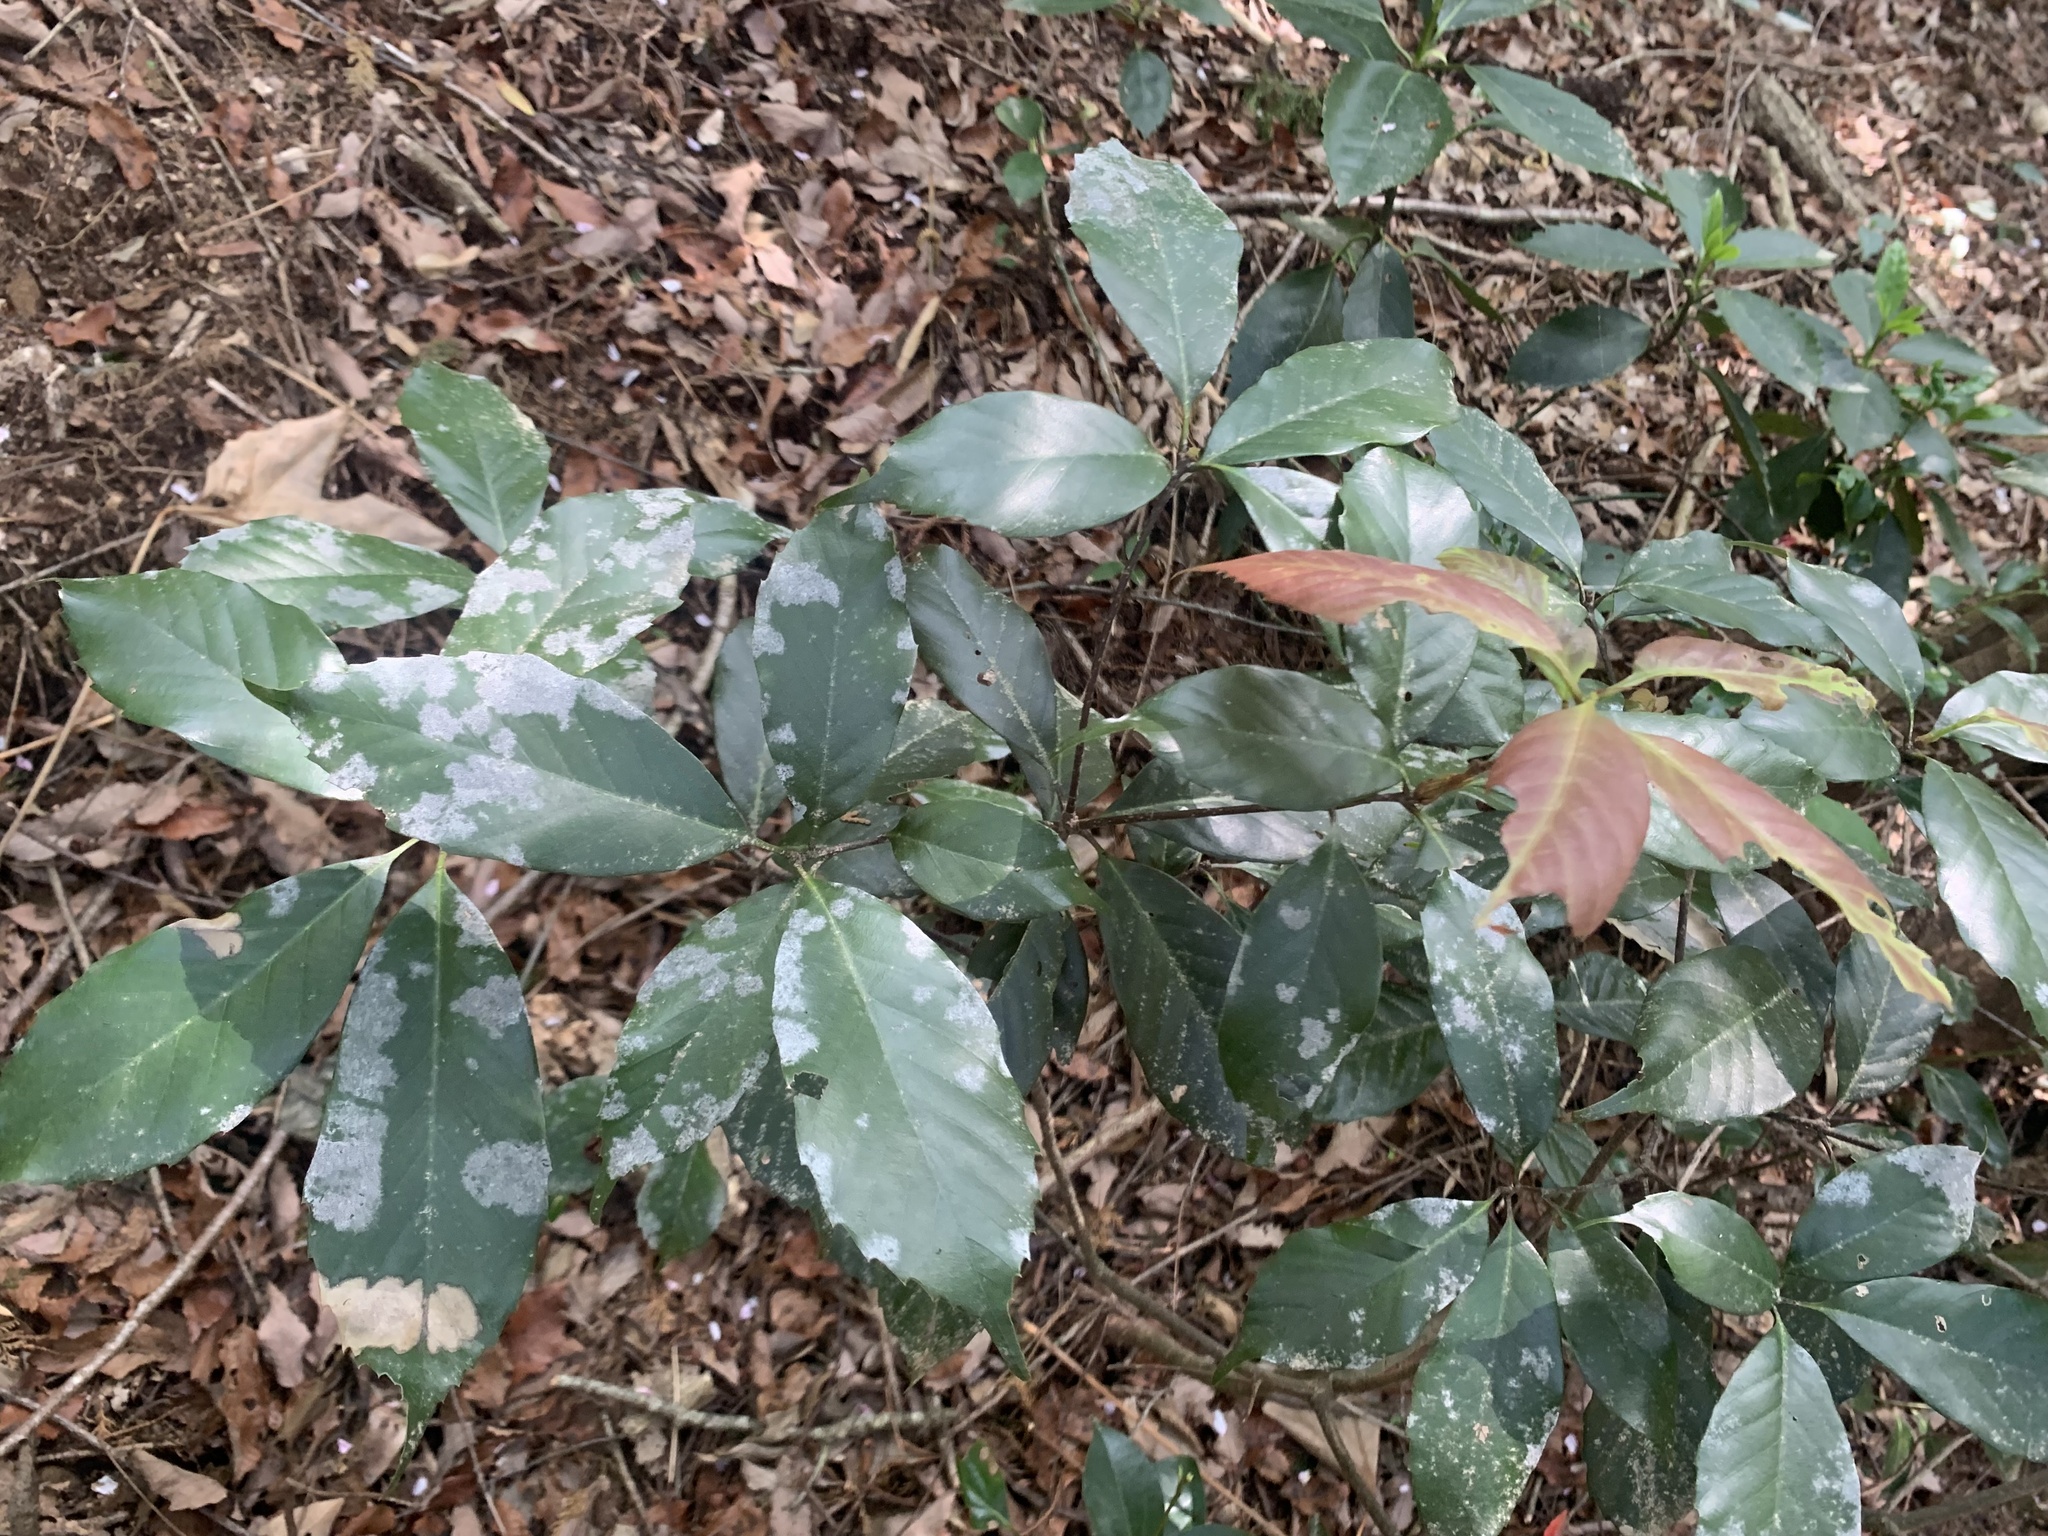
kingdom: Plantae
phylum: Tracheophyta
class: Magnoliopsida
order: Fagales
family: Fagaceae
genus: Quercus
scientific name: Quercus glauca
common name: Ring-cup oak
